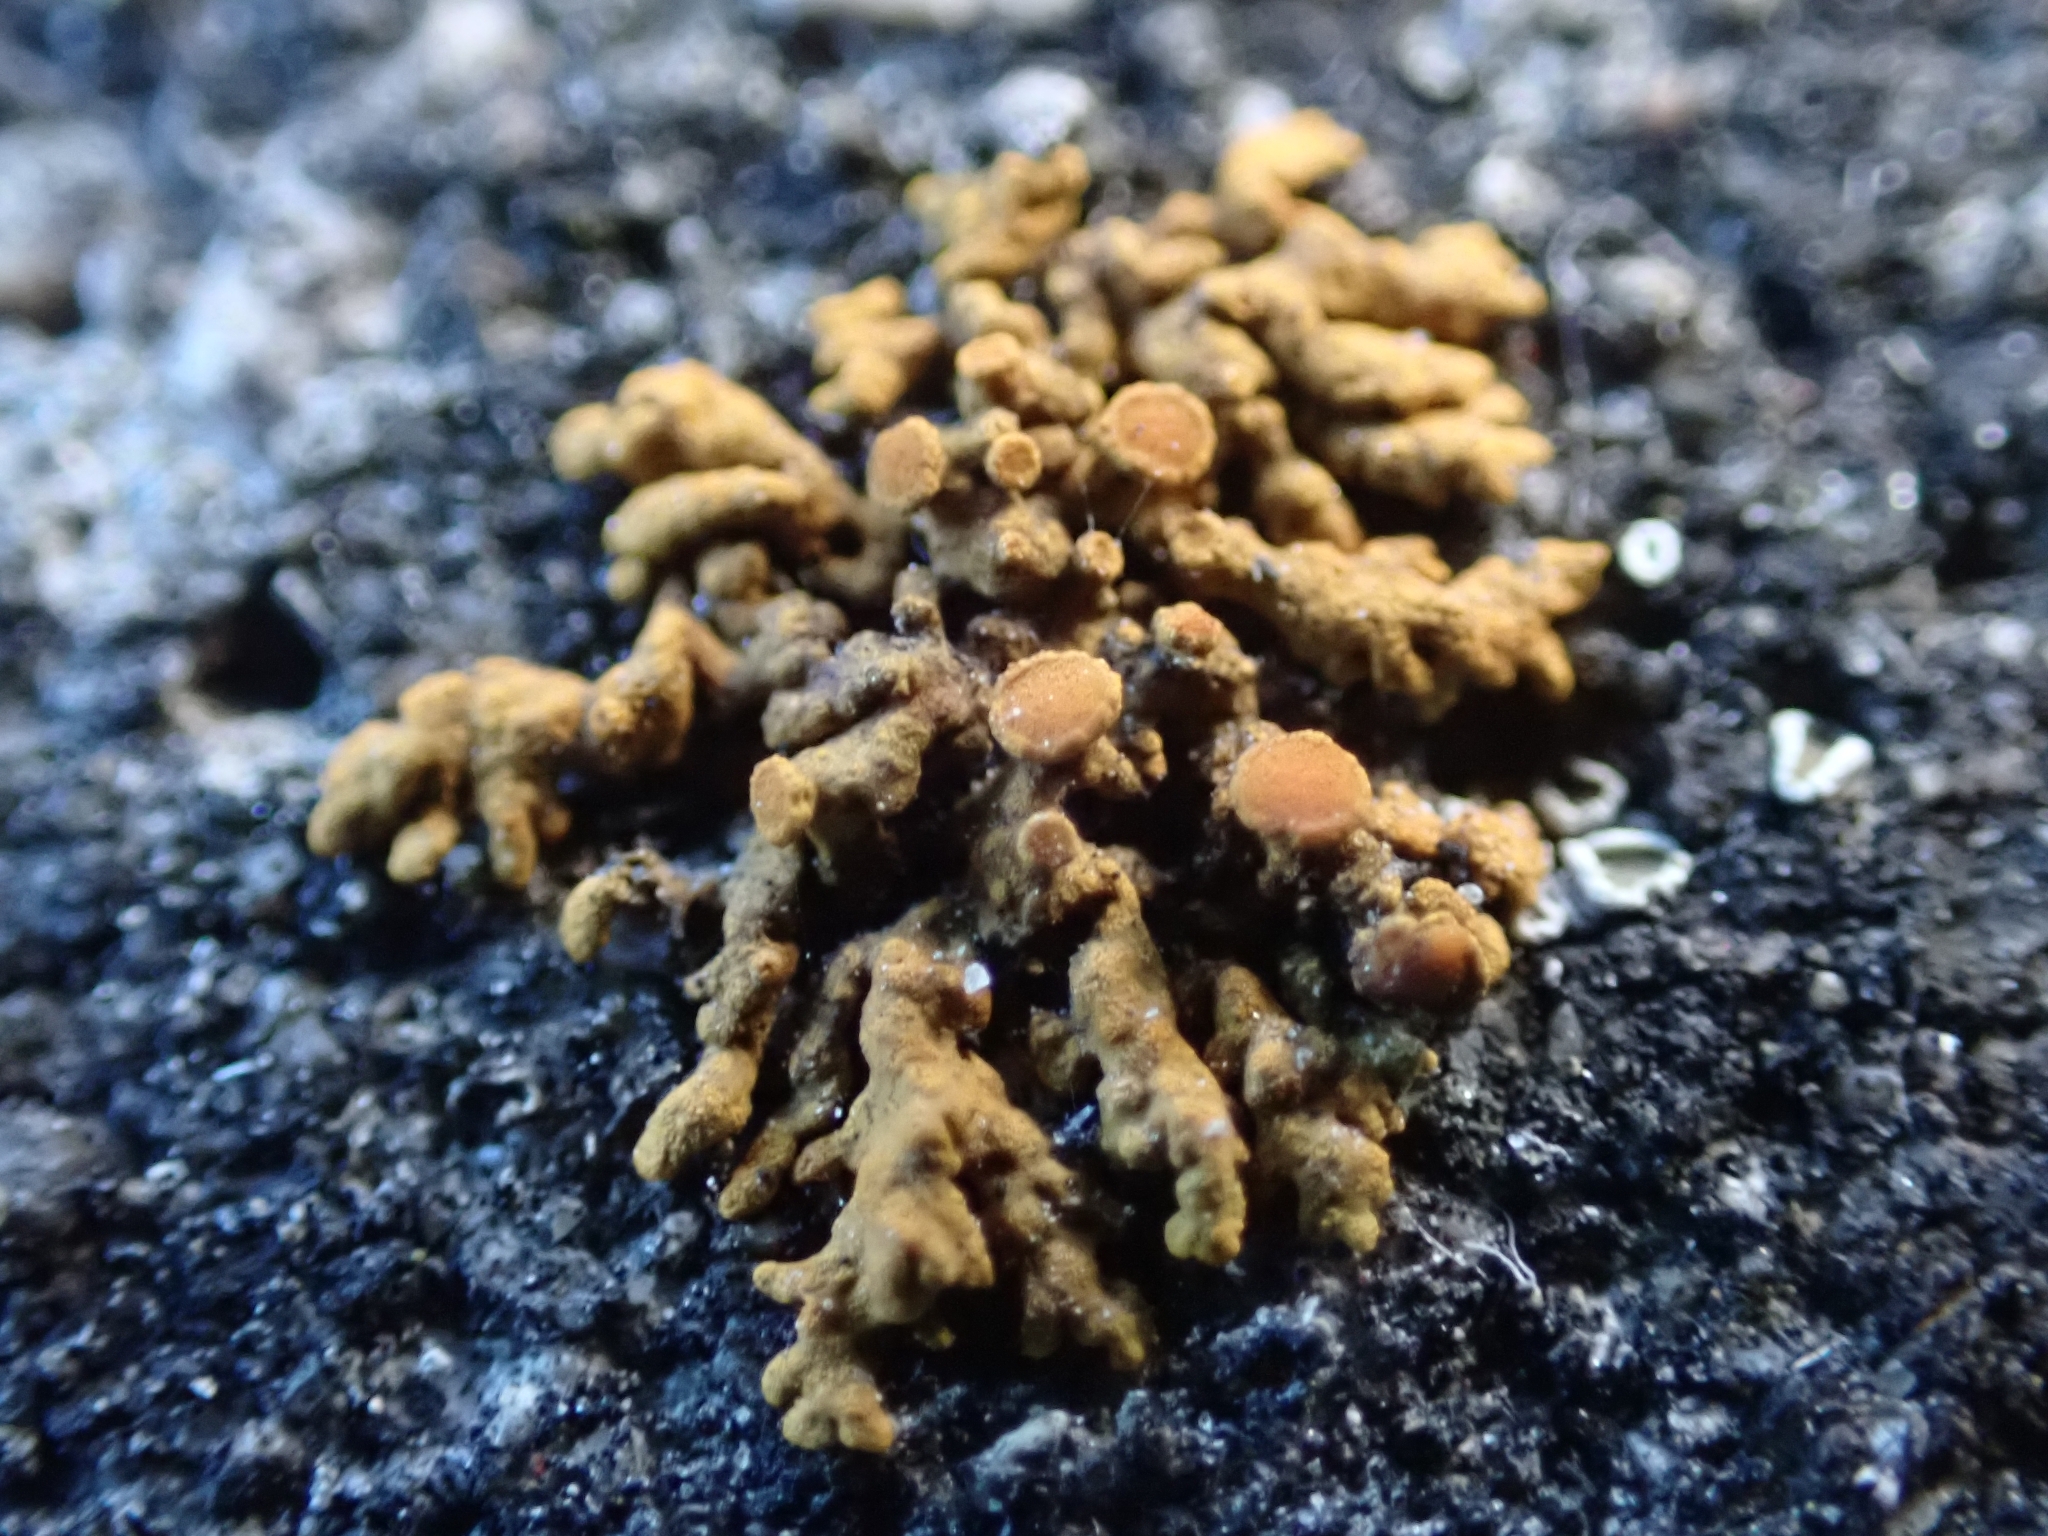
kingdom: Fungi
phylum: Ascomycota
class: Lecanoromycetes
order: Teloschistales
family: Teloschistaceae
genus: Xanthoria
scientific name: Xanthoria elegans
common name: Elegant sunburst lichen
